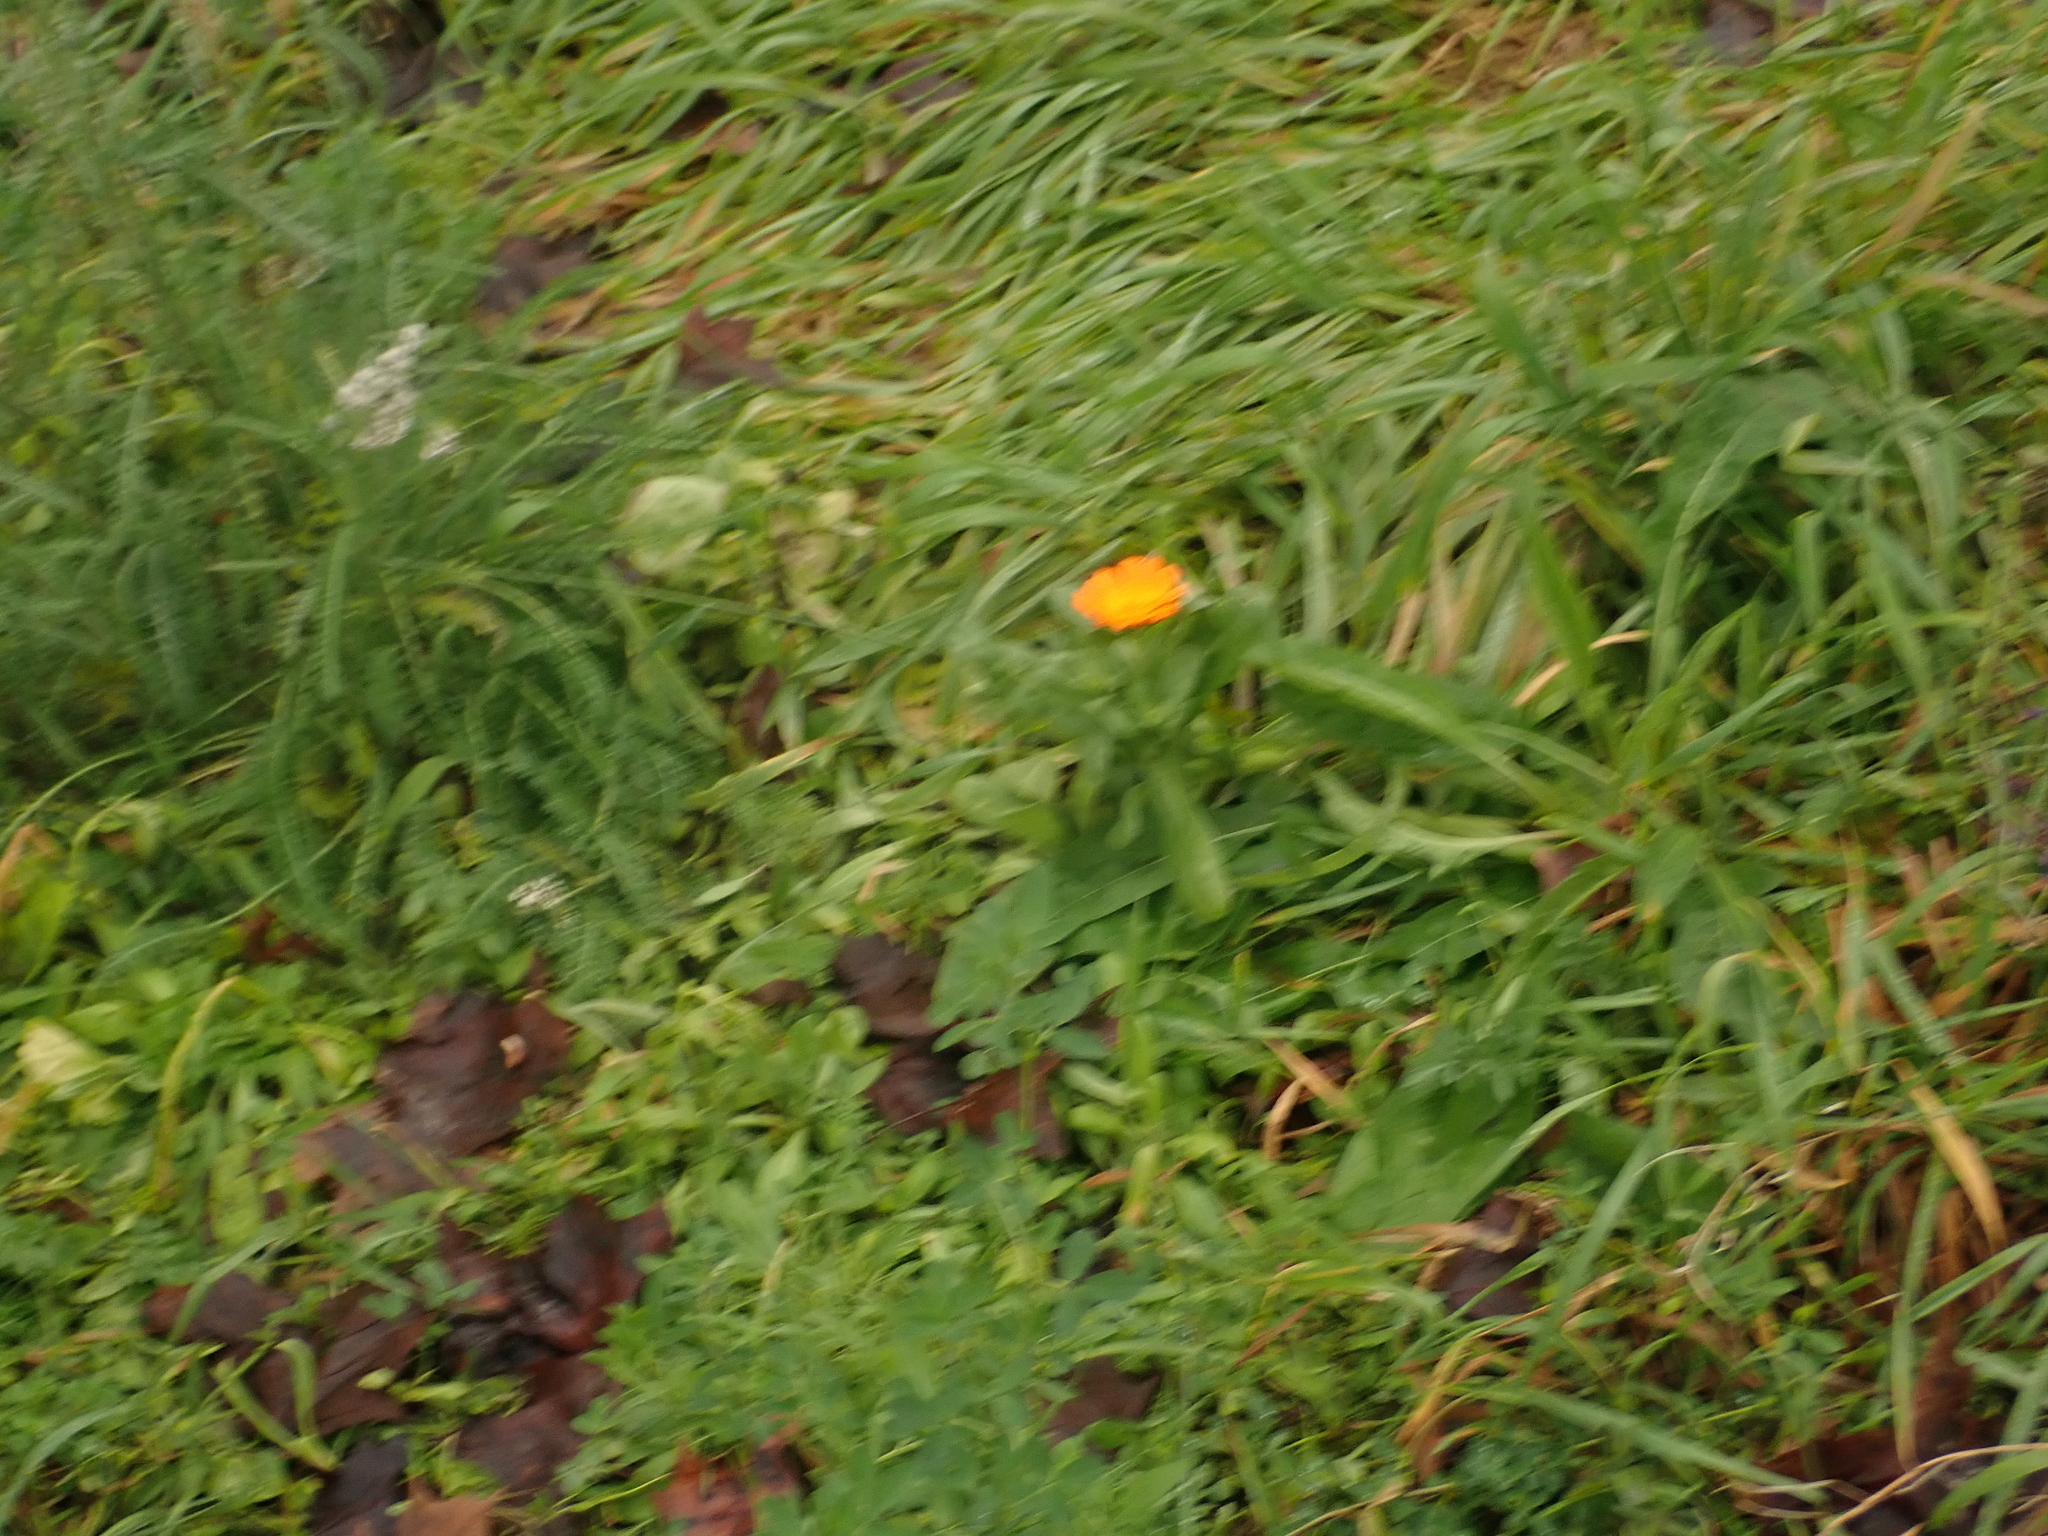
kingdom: Plantae
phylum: Tracheophyta
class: Magnoliopsida
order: Asterales
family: Asteraceae
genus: Calendula
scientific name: Calendula officinalis
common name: Pot marigold
